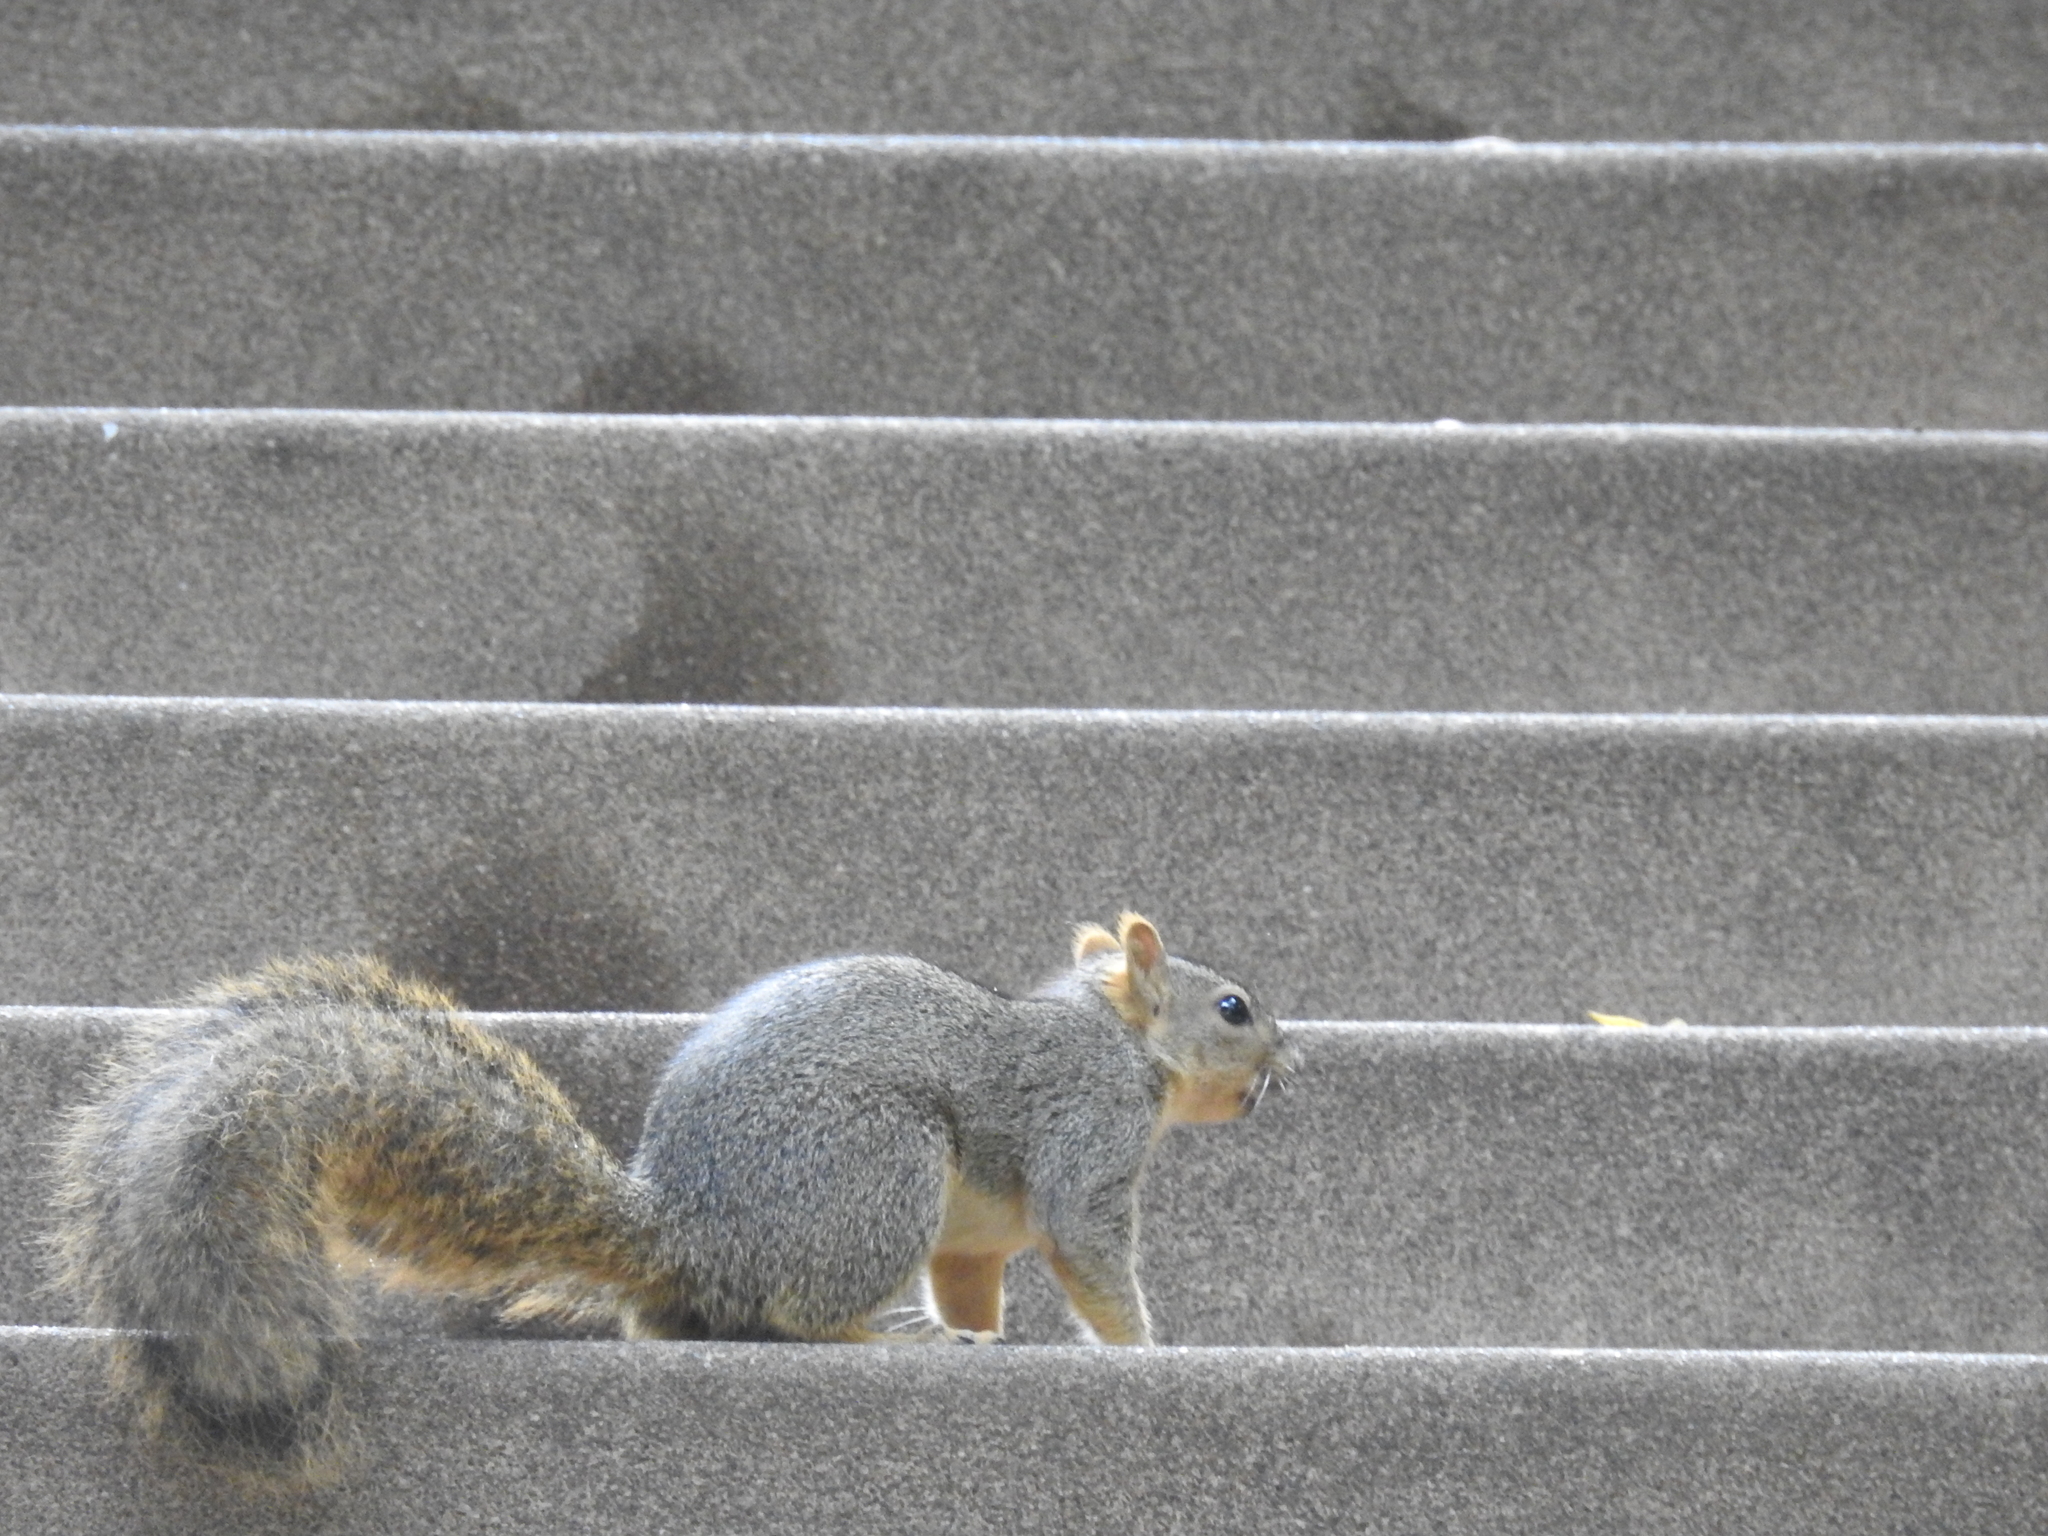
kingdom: Animalia
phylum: Chordata
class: Mammalia
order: Rodentia
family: Sciuridae
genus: Sciurus
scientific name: Sciurus niger
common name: Fox squirrel
